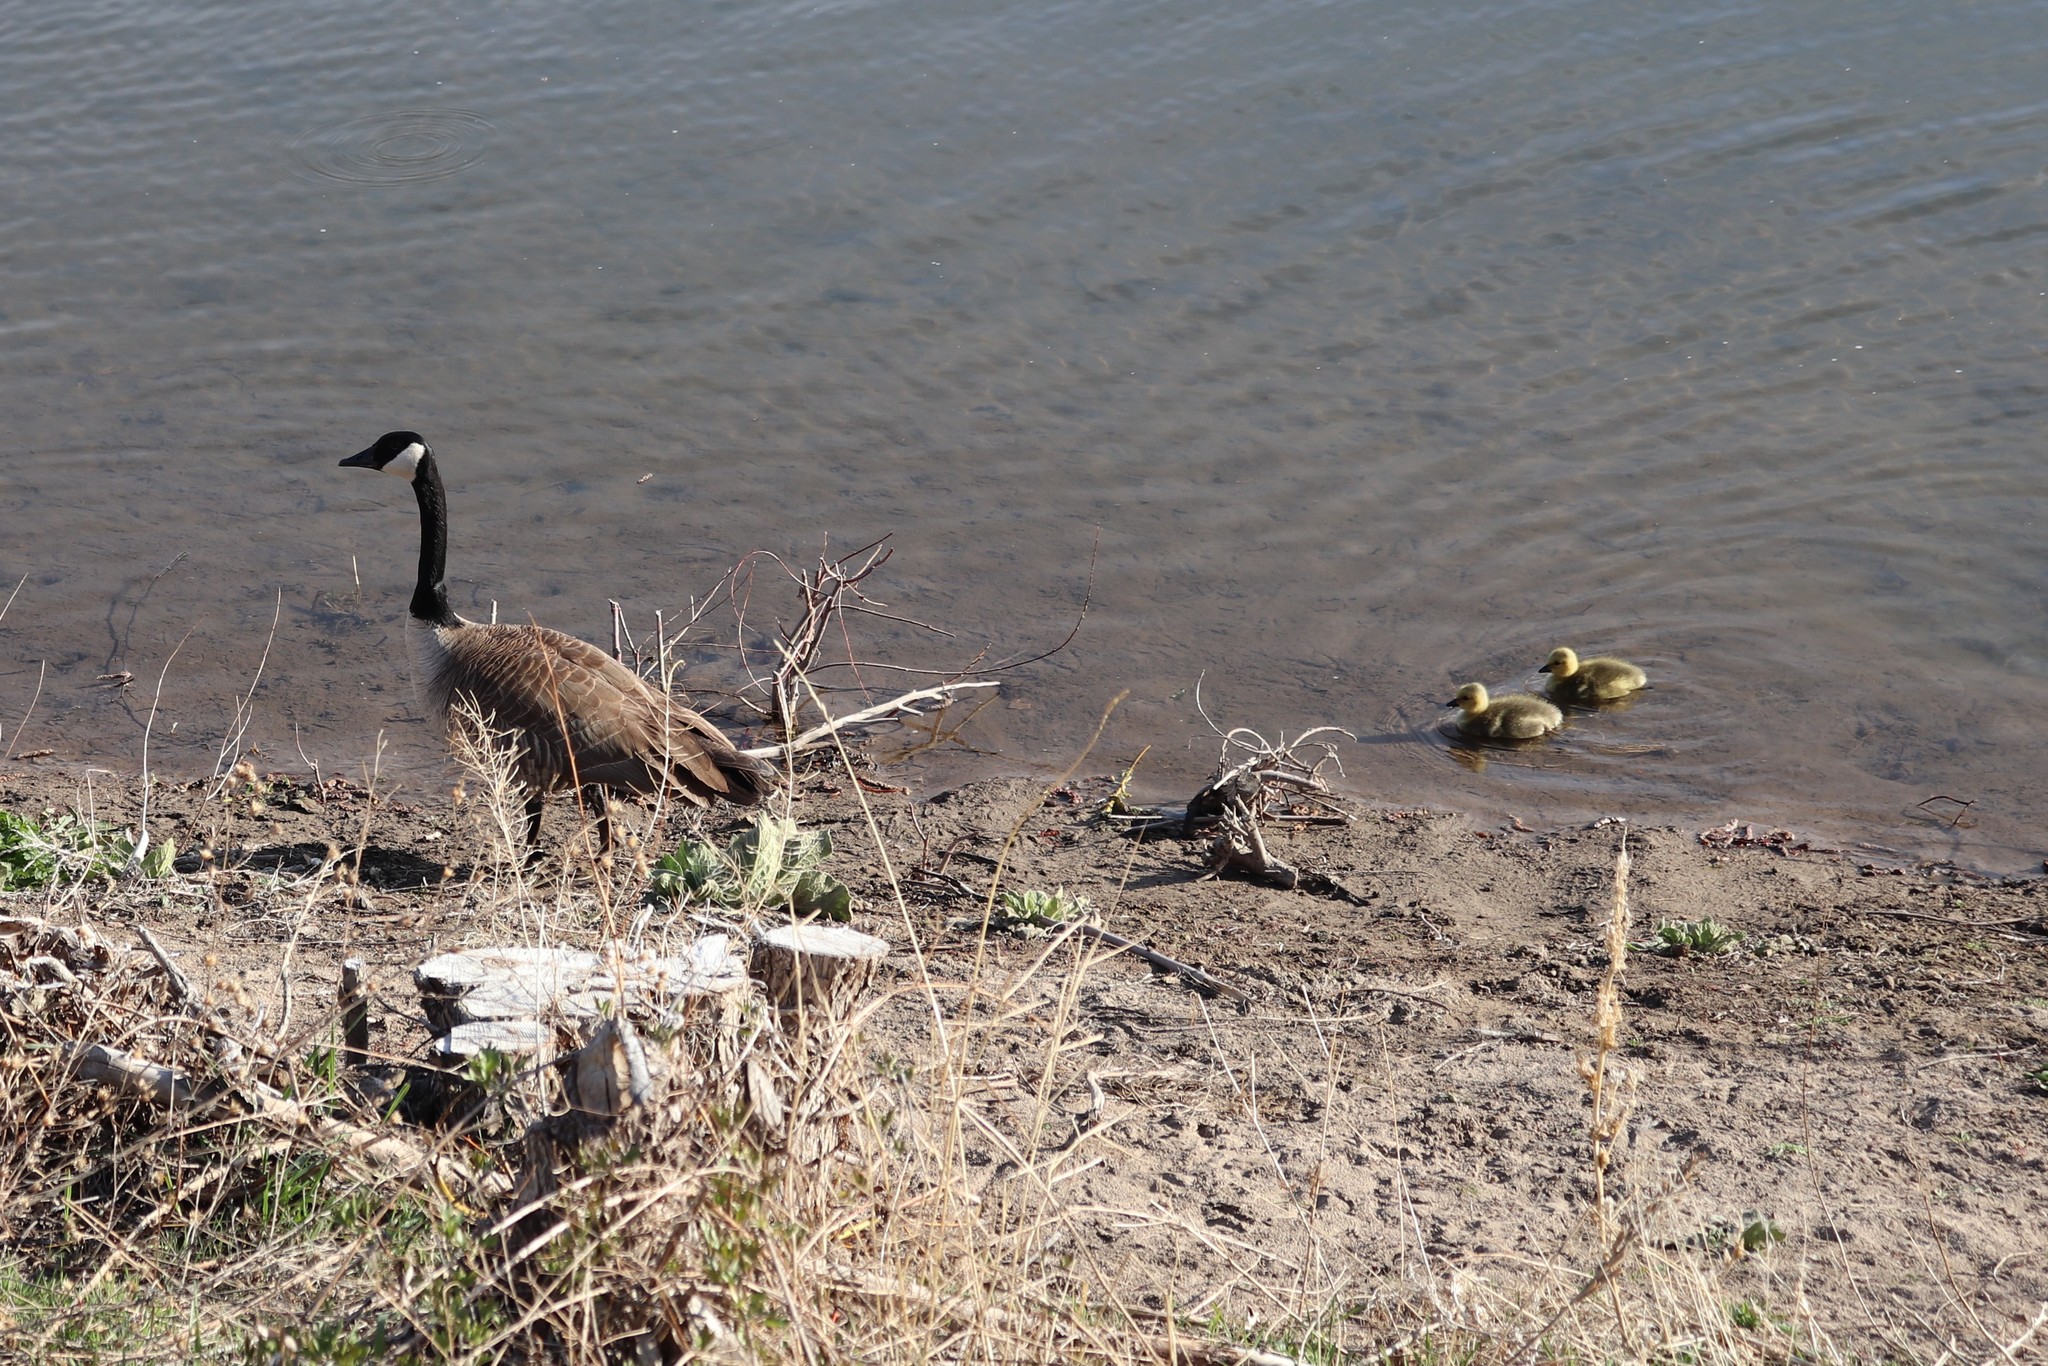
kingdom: Animalia
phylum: Chordata
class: Aves
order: Anseriformes
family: Anatidae
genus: Branta
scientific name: Branta canadensis
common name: Canada goose
